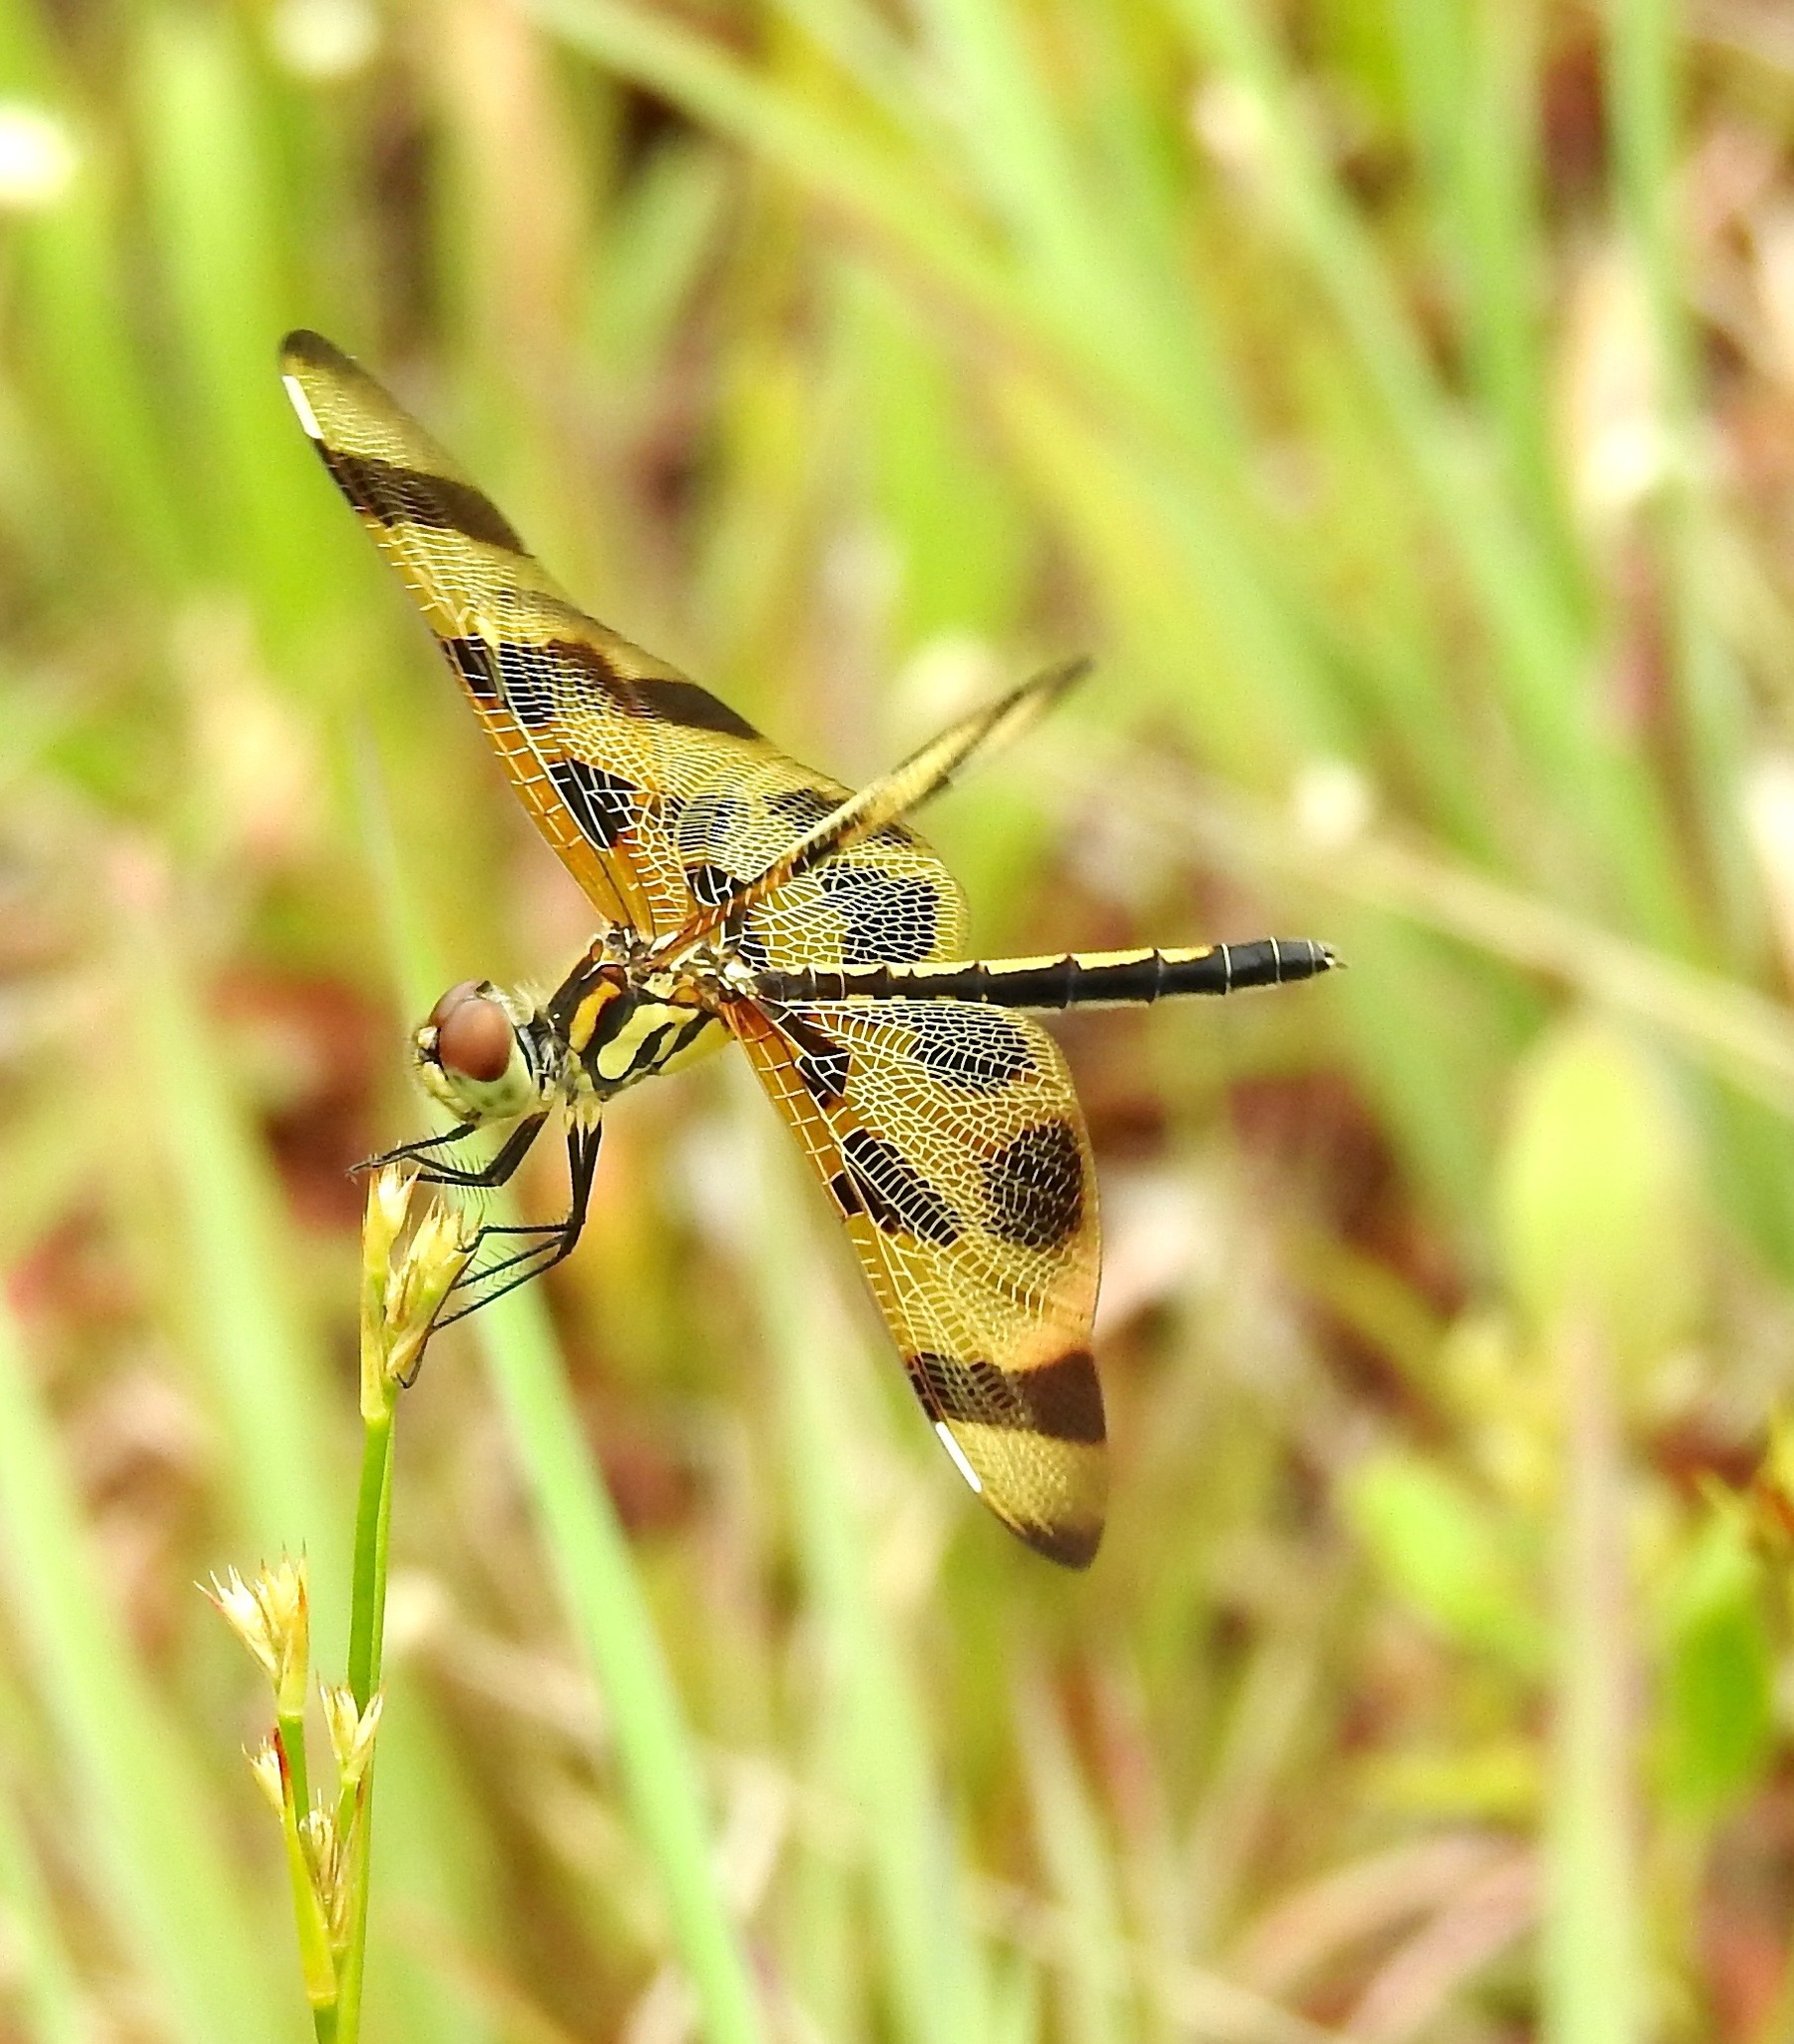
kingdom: Animalia
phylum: Arthropoda
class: Insecta
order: Odonata
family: Libellulidae
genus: Celithemis
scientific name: Celithemis eponina
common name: Halloween pennant
